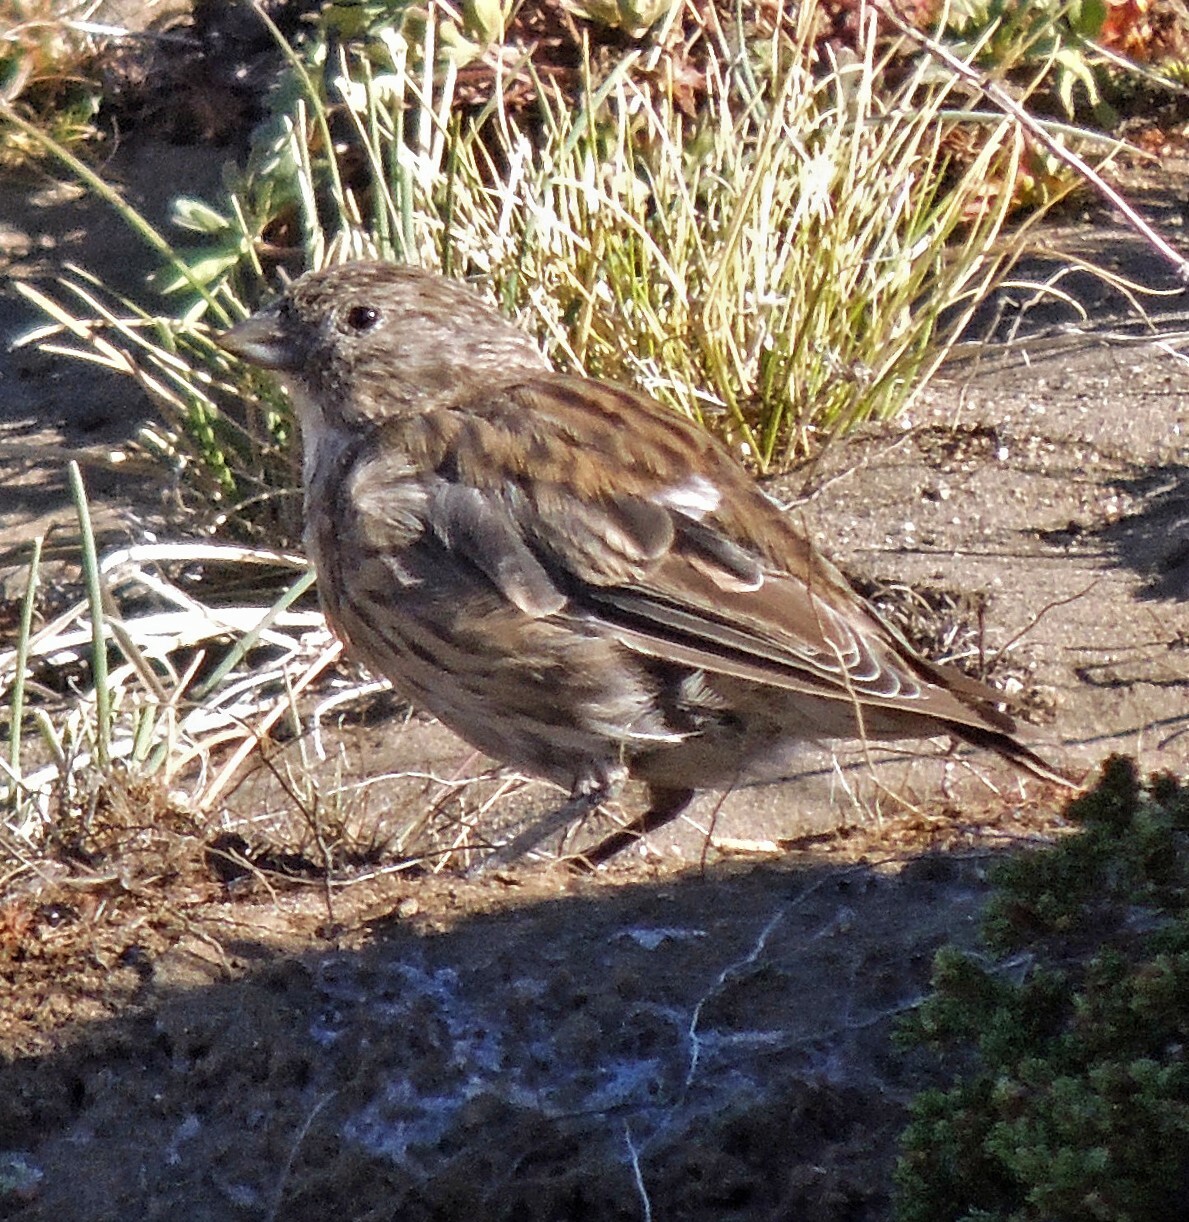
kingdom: Animalia
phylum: Chordata
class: Aves
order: Passeriformes
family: Thraupidae
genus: Melanodera
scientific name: Melanodera xanthogramma
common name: Yellow-bridled finch
